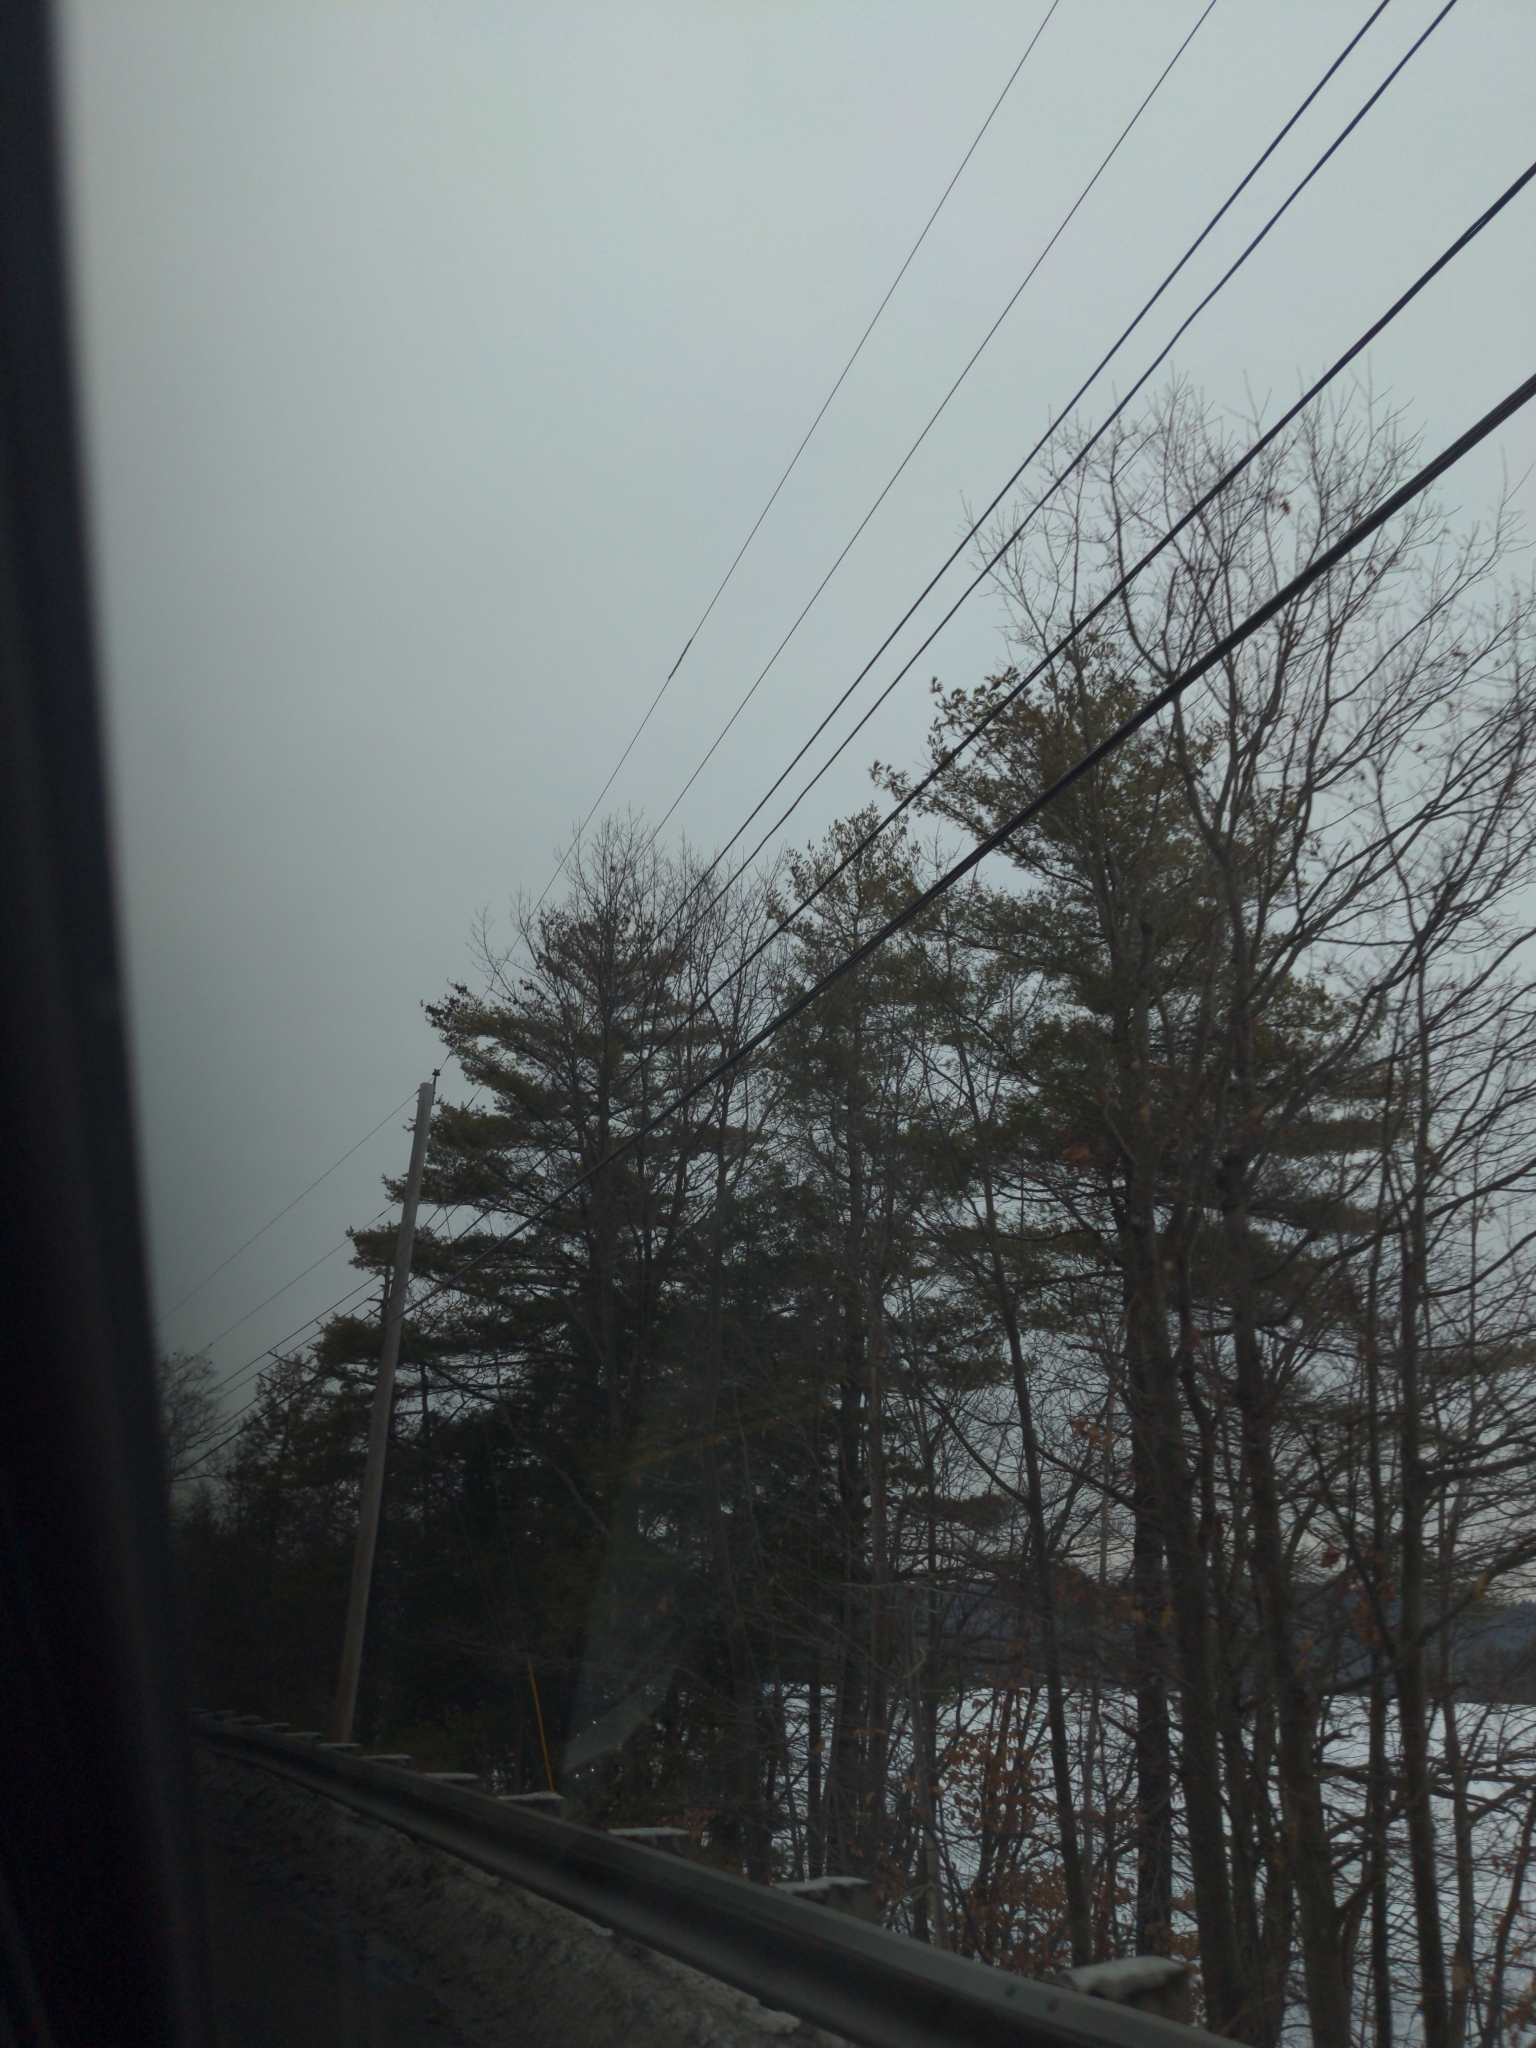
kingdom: Plantae
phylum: Tracheophyta
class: Pinopsida
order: Pinales
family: Pinaceae
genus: Pinus
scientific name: Pinus strobus
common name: Weymouth pine
